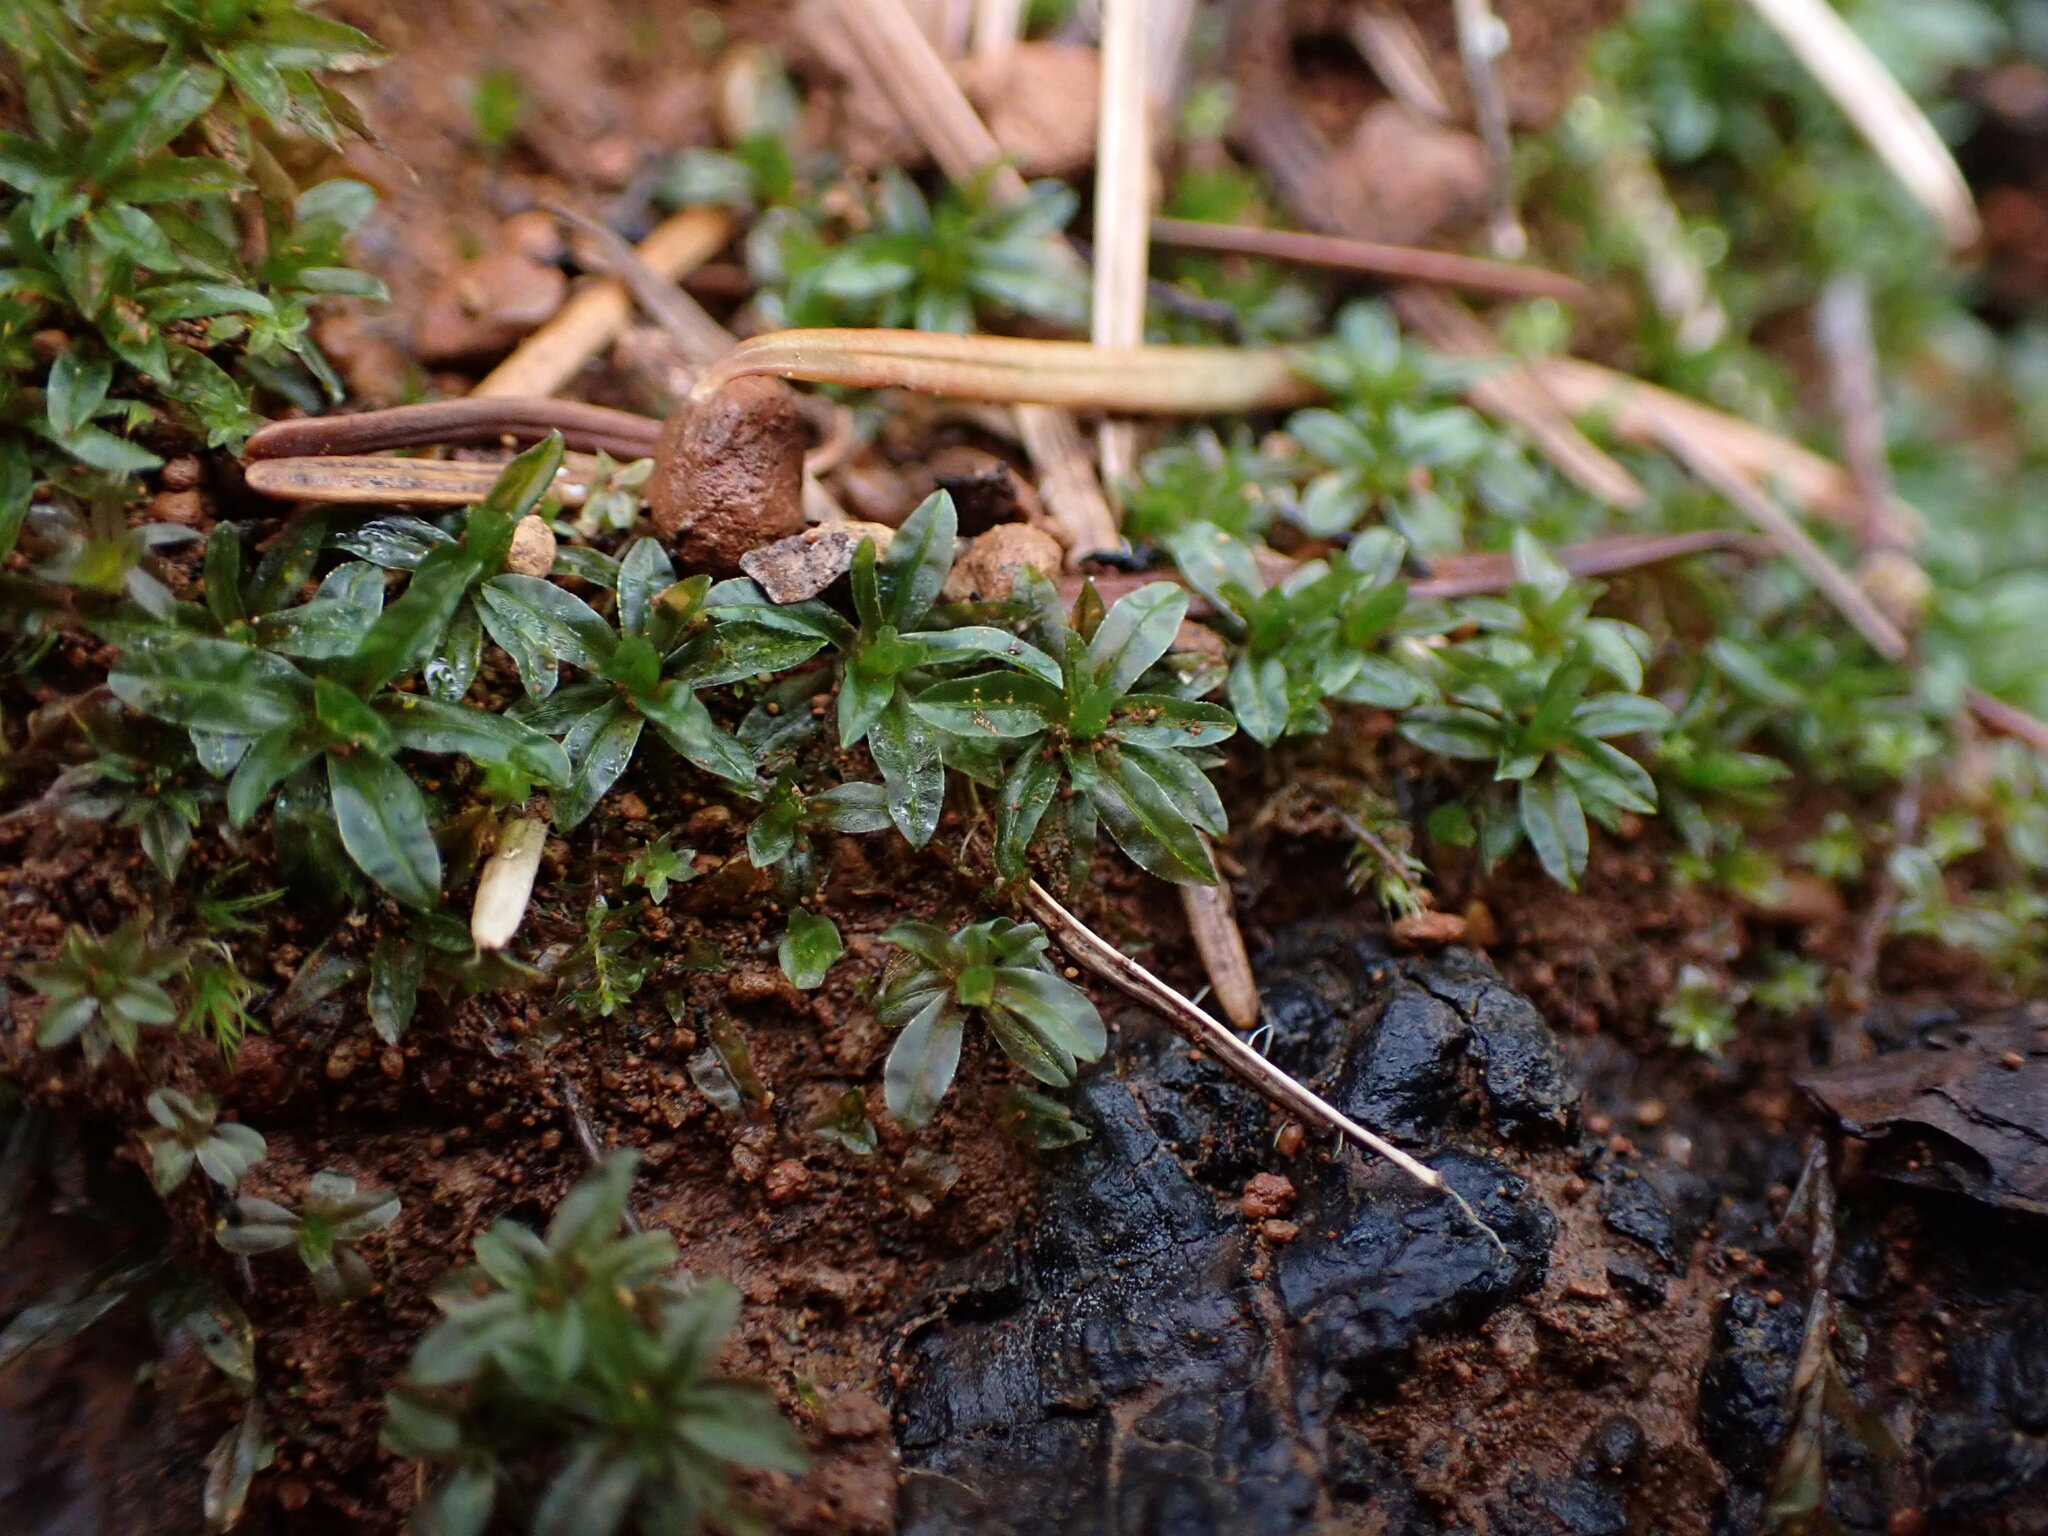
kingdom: Plantae
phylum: Bryophyta
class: Polytrichopsida
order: Polytrichales
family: Polytrichaceae
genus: Atrichum
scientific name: Atrichum selwynii
